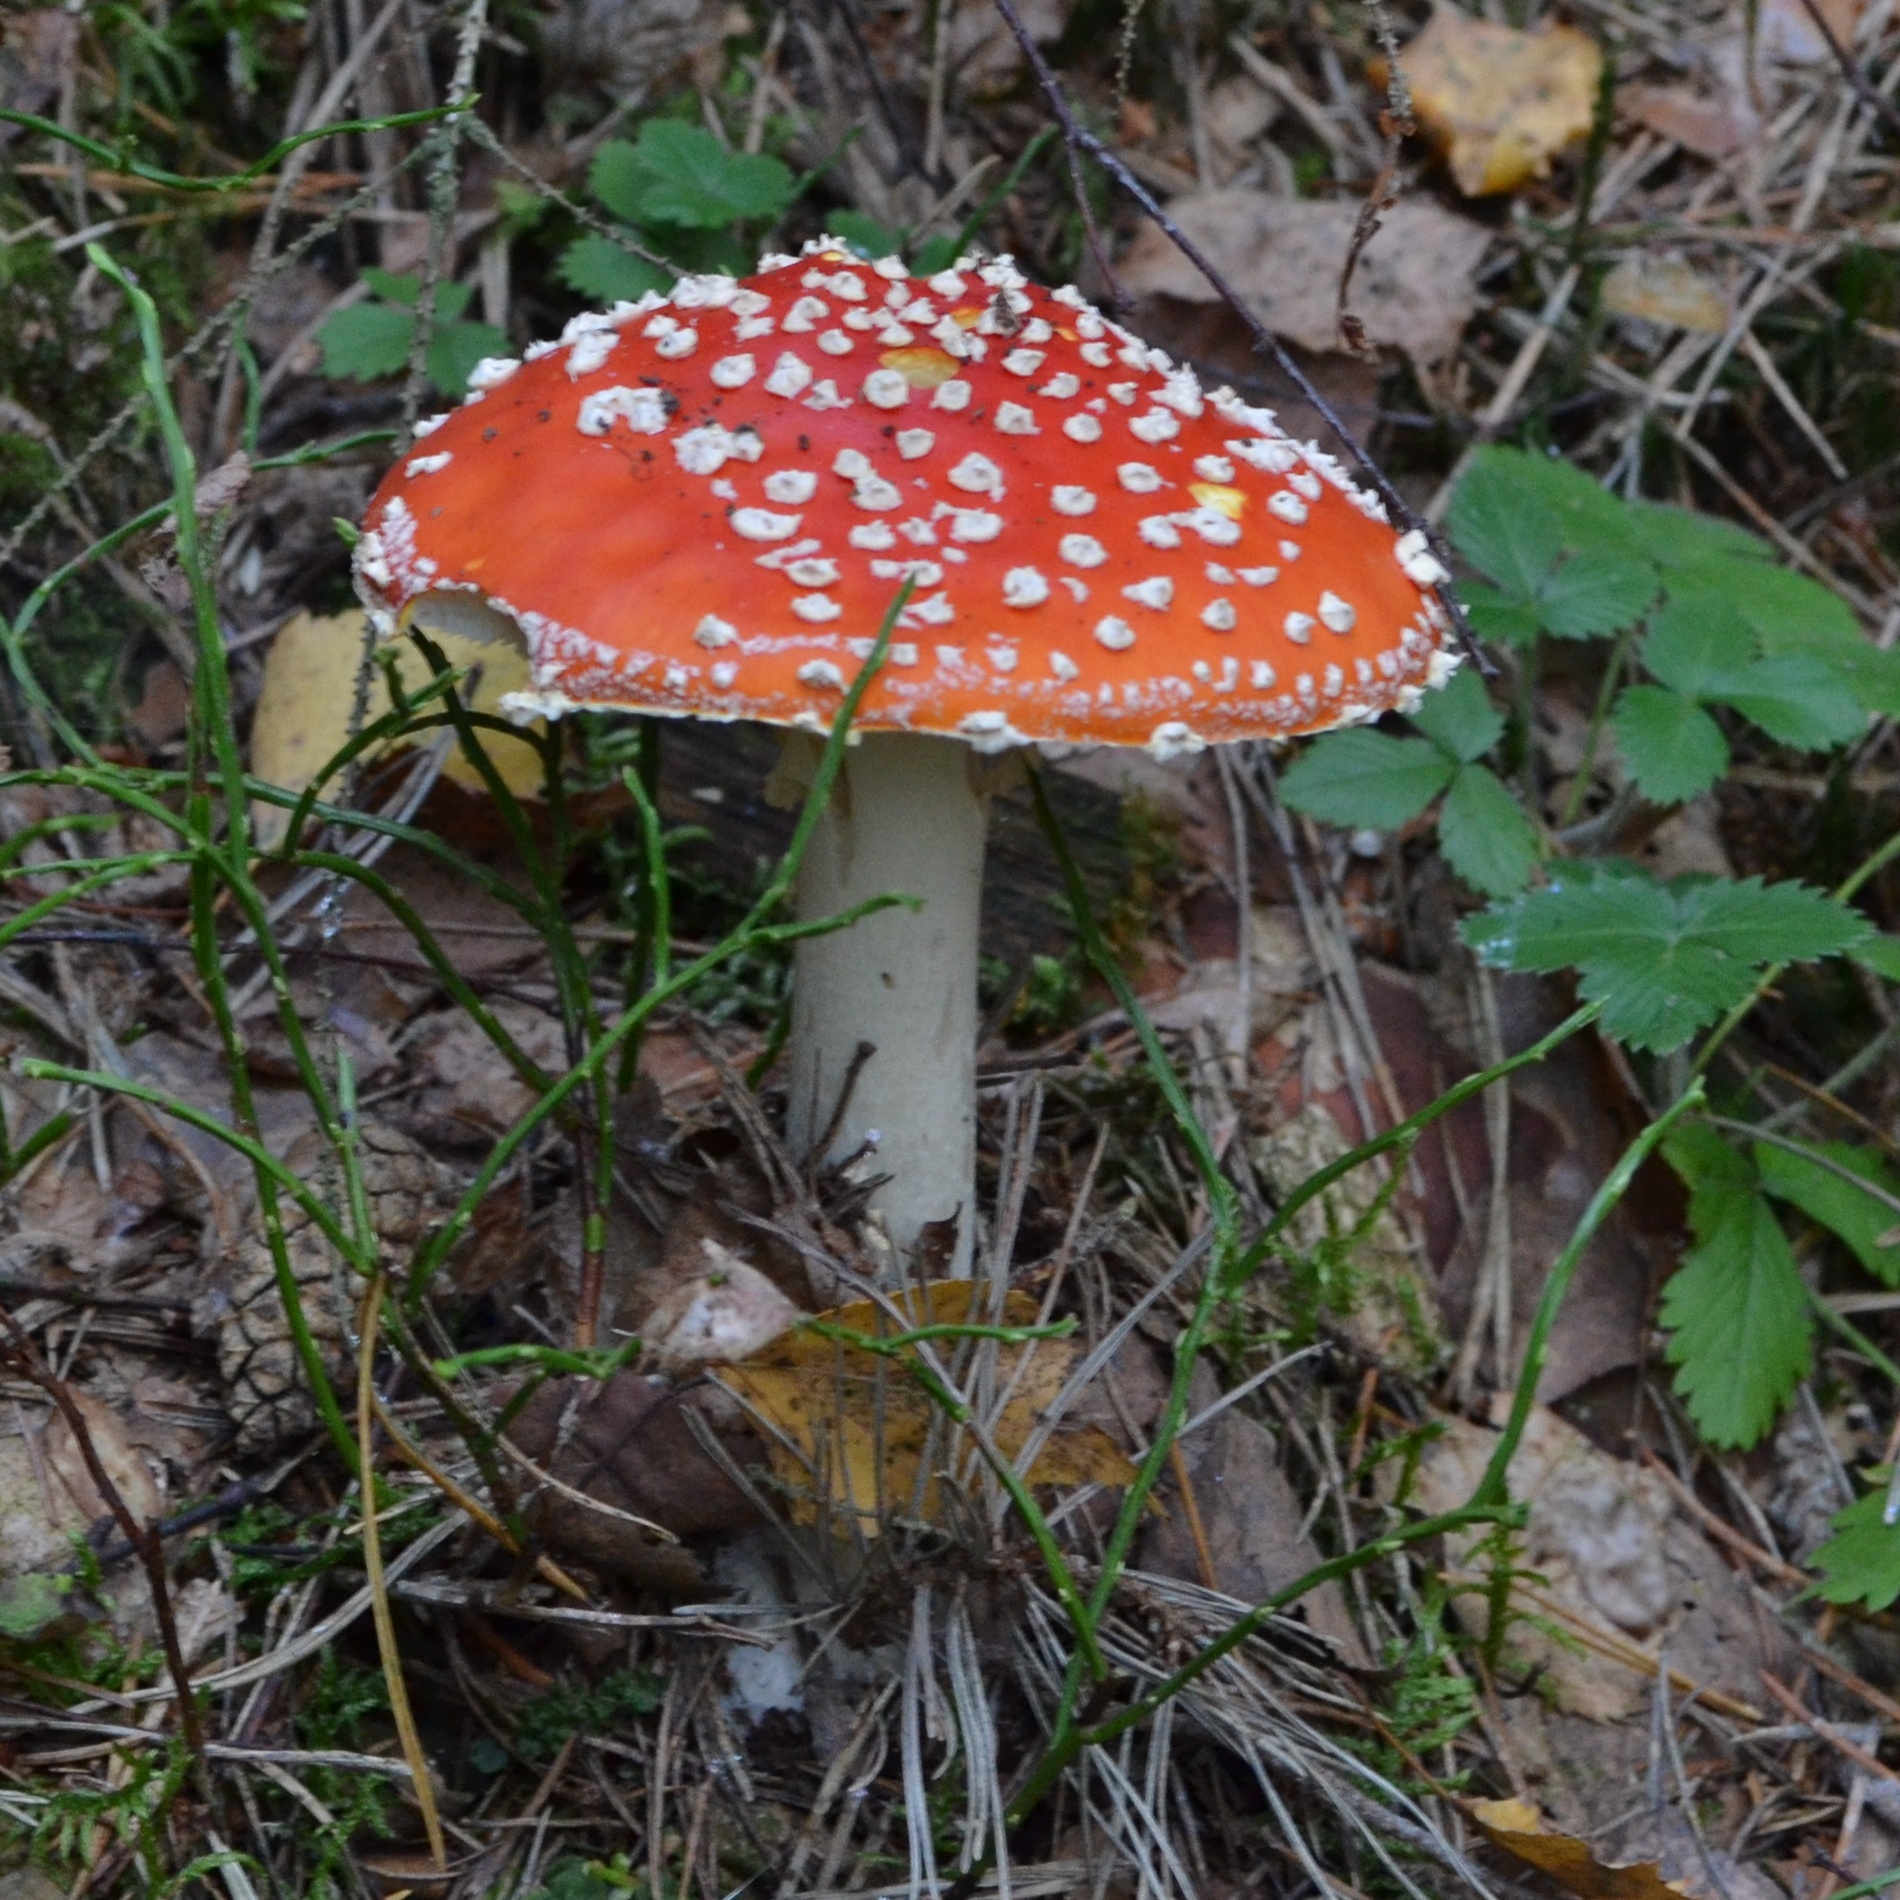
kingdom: Fungi
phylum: Basidiomycota
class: Agaricomycetes
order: Agaricales
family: Amanitaceae
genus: Amanita
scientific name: Amanita muscaria
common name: Fly agaric
